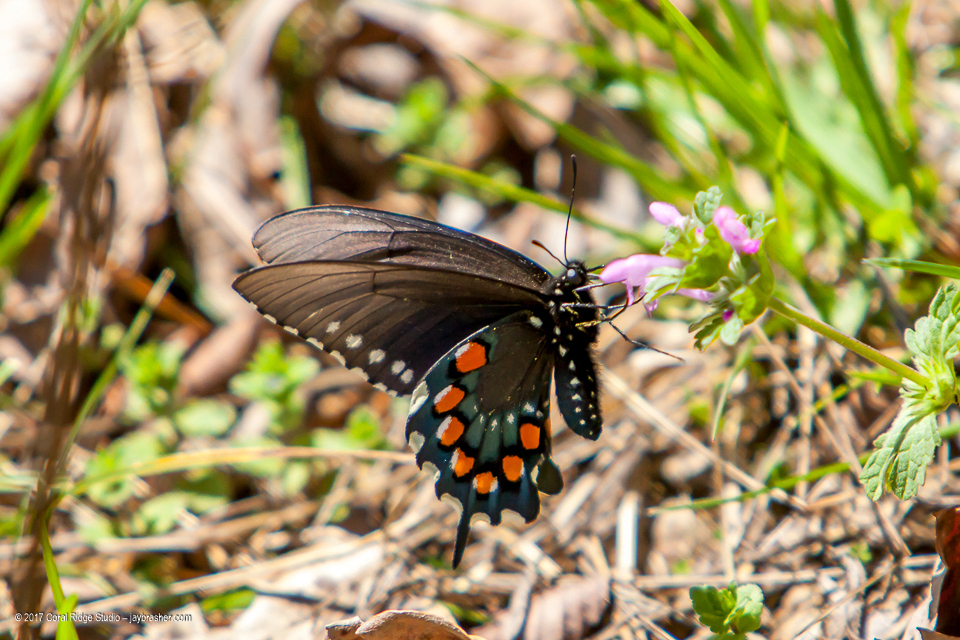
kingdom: Animalia
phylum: Arthropoda
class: Insecta
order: Lepidoptera
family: Papilionidae
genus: Battus
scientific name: Battus philenor
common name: Pipevine swallowtail
